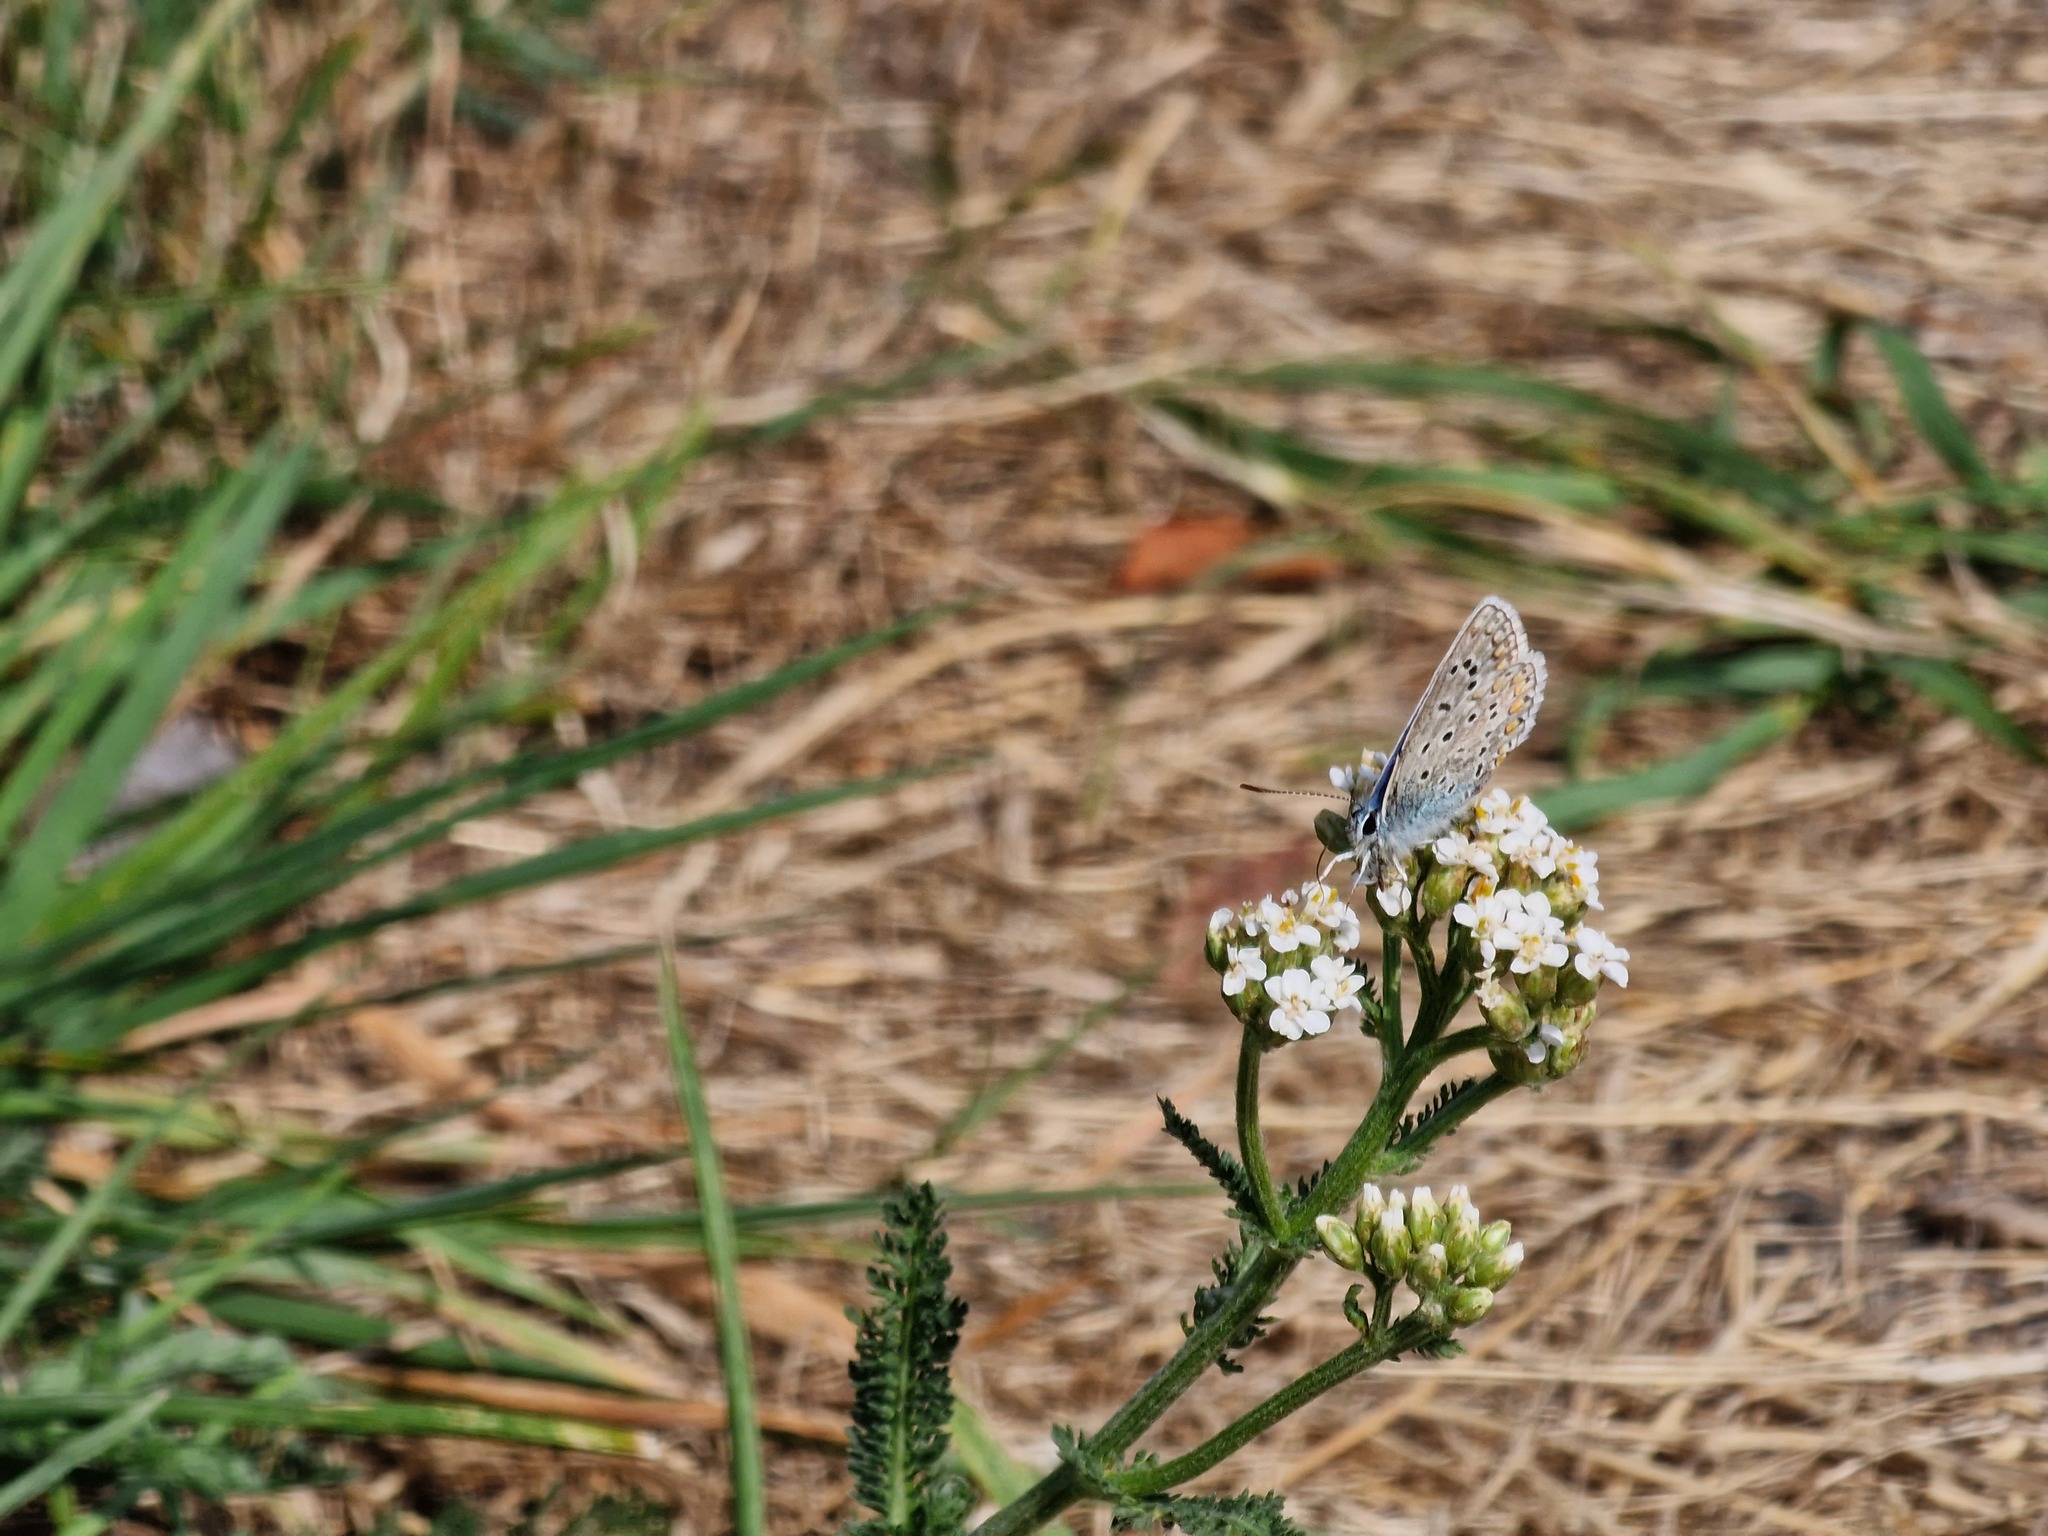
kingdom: Animalia
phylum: Arthropoda
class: Insecta
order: Lepidoptera
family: Lycaenidae
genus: Polyommatus
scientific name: Polyommatus icarus
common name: Common blue
